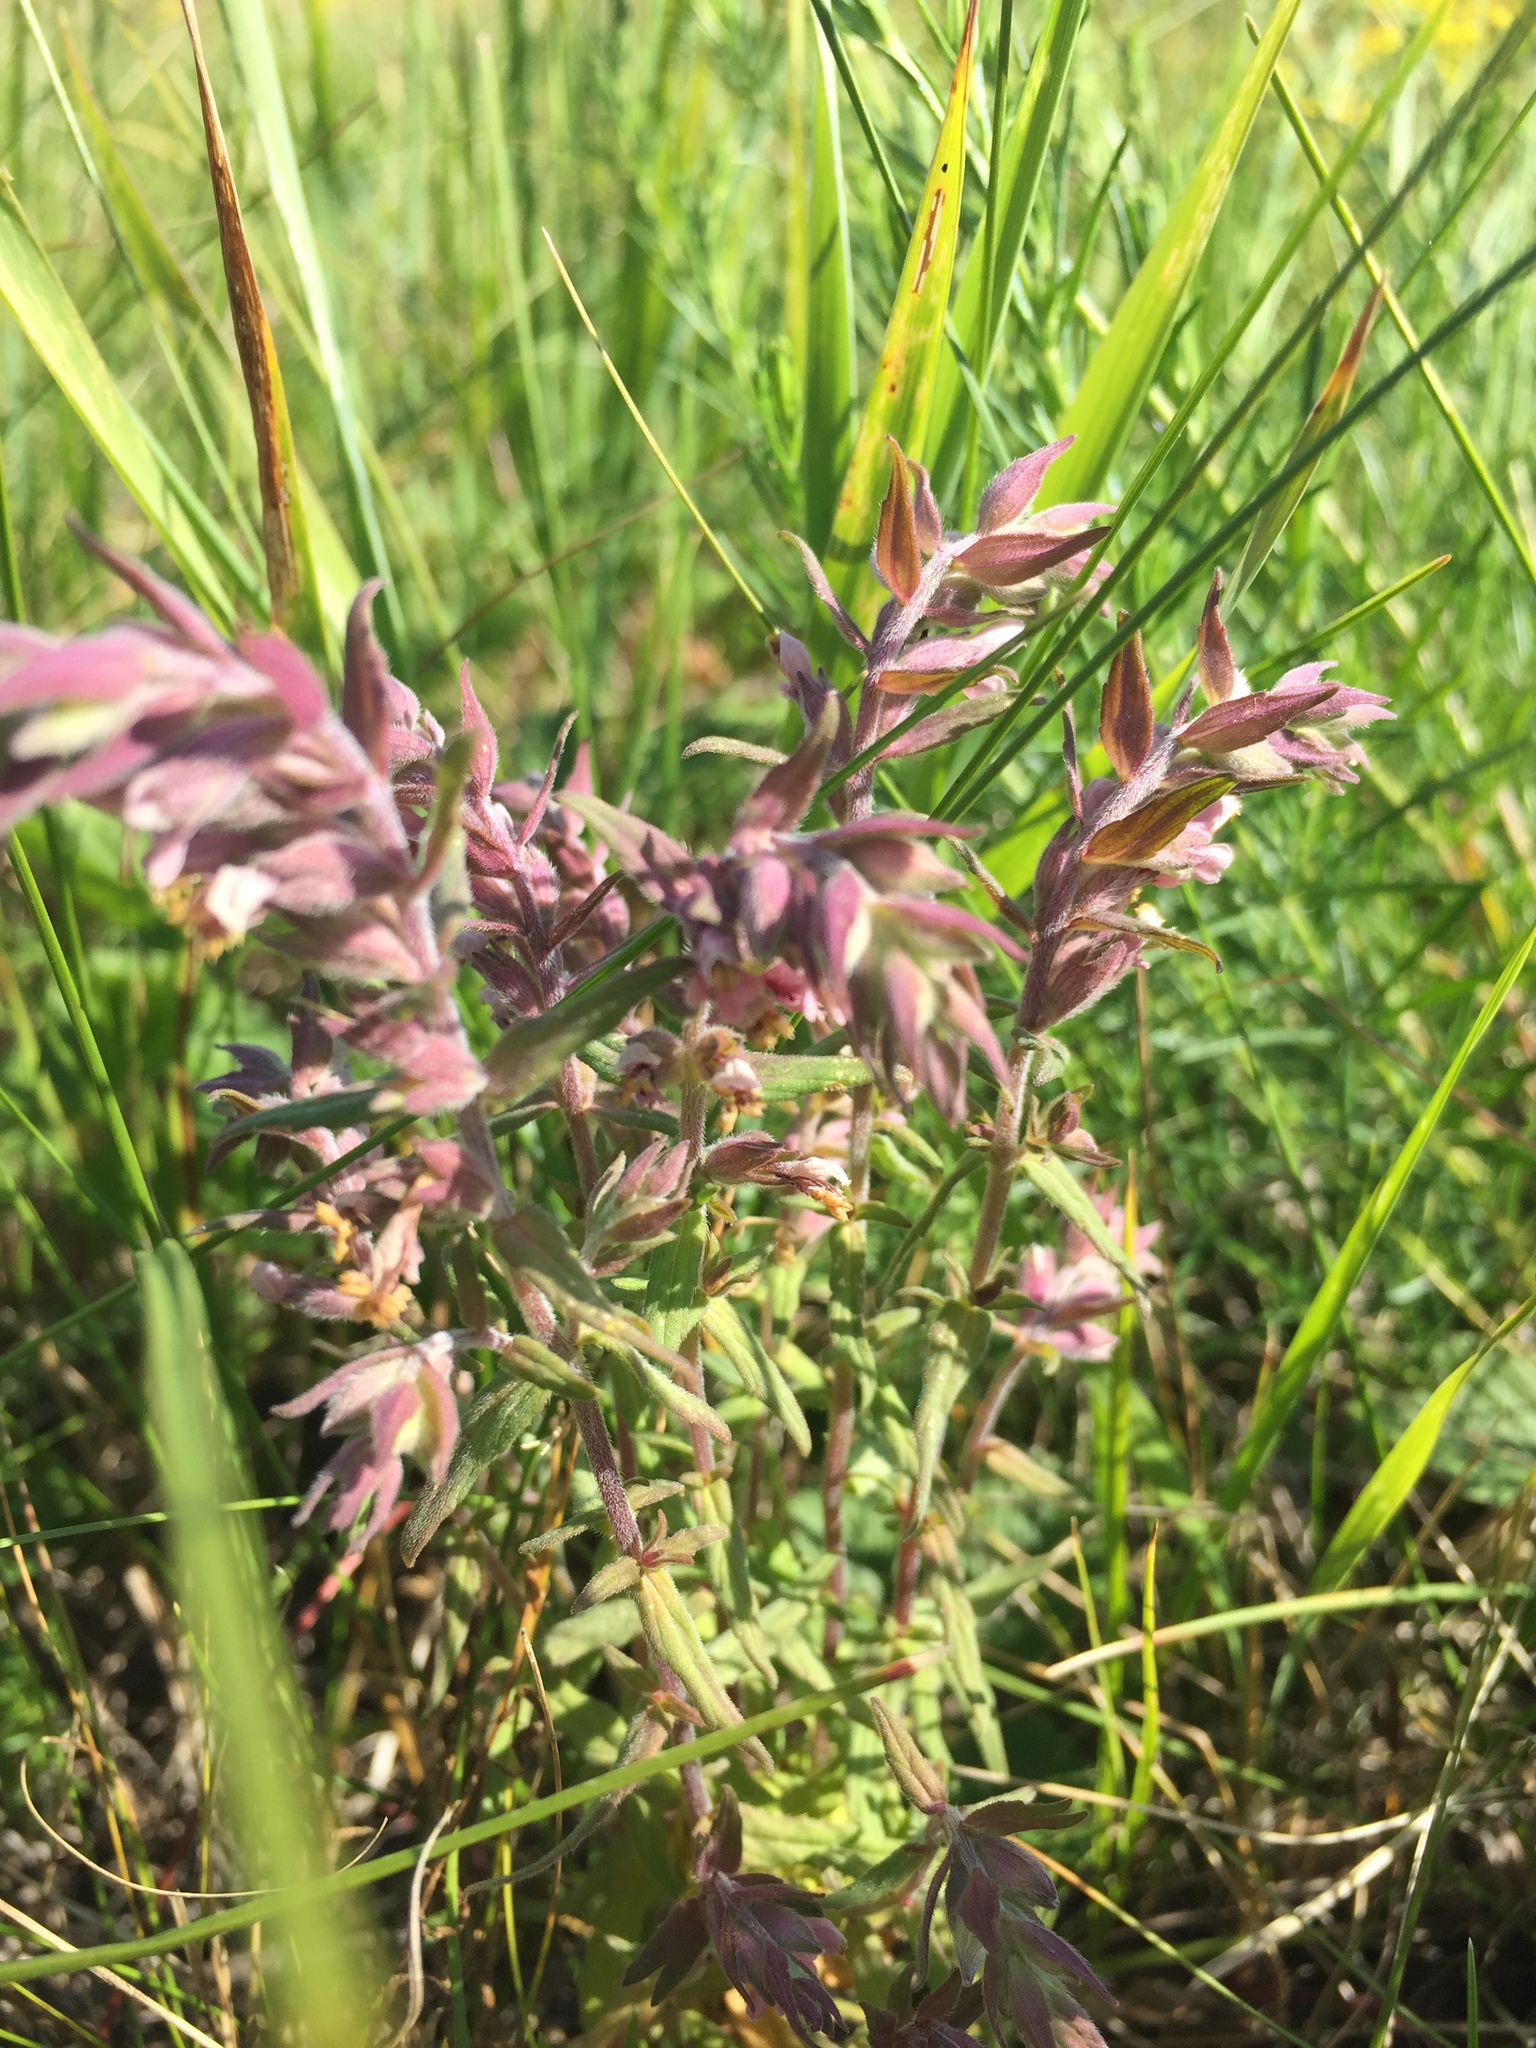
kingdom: Plantae
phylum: Tracheophyta
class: Magnoliopsida
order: Lamiales
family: Orobanchaceae
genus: Odontites
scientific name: Odontites vulgaris
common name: Broomrape
